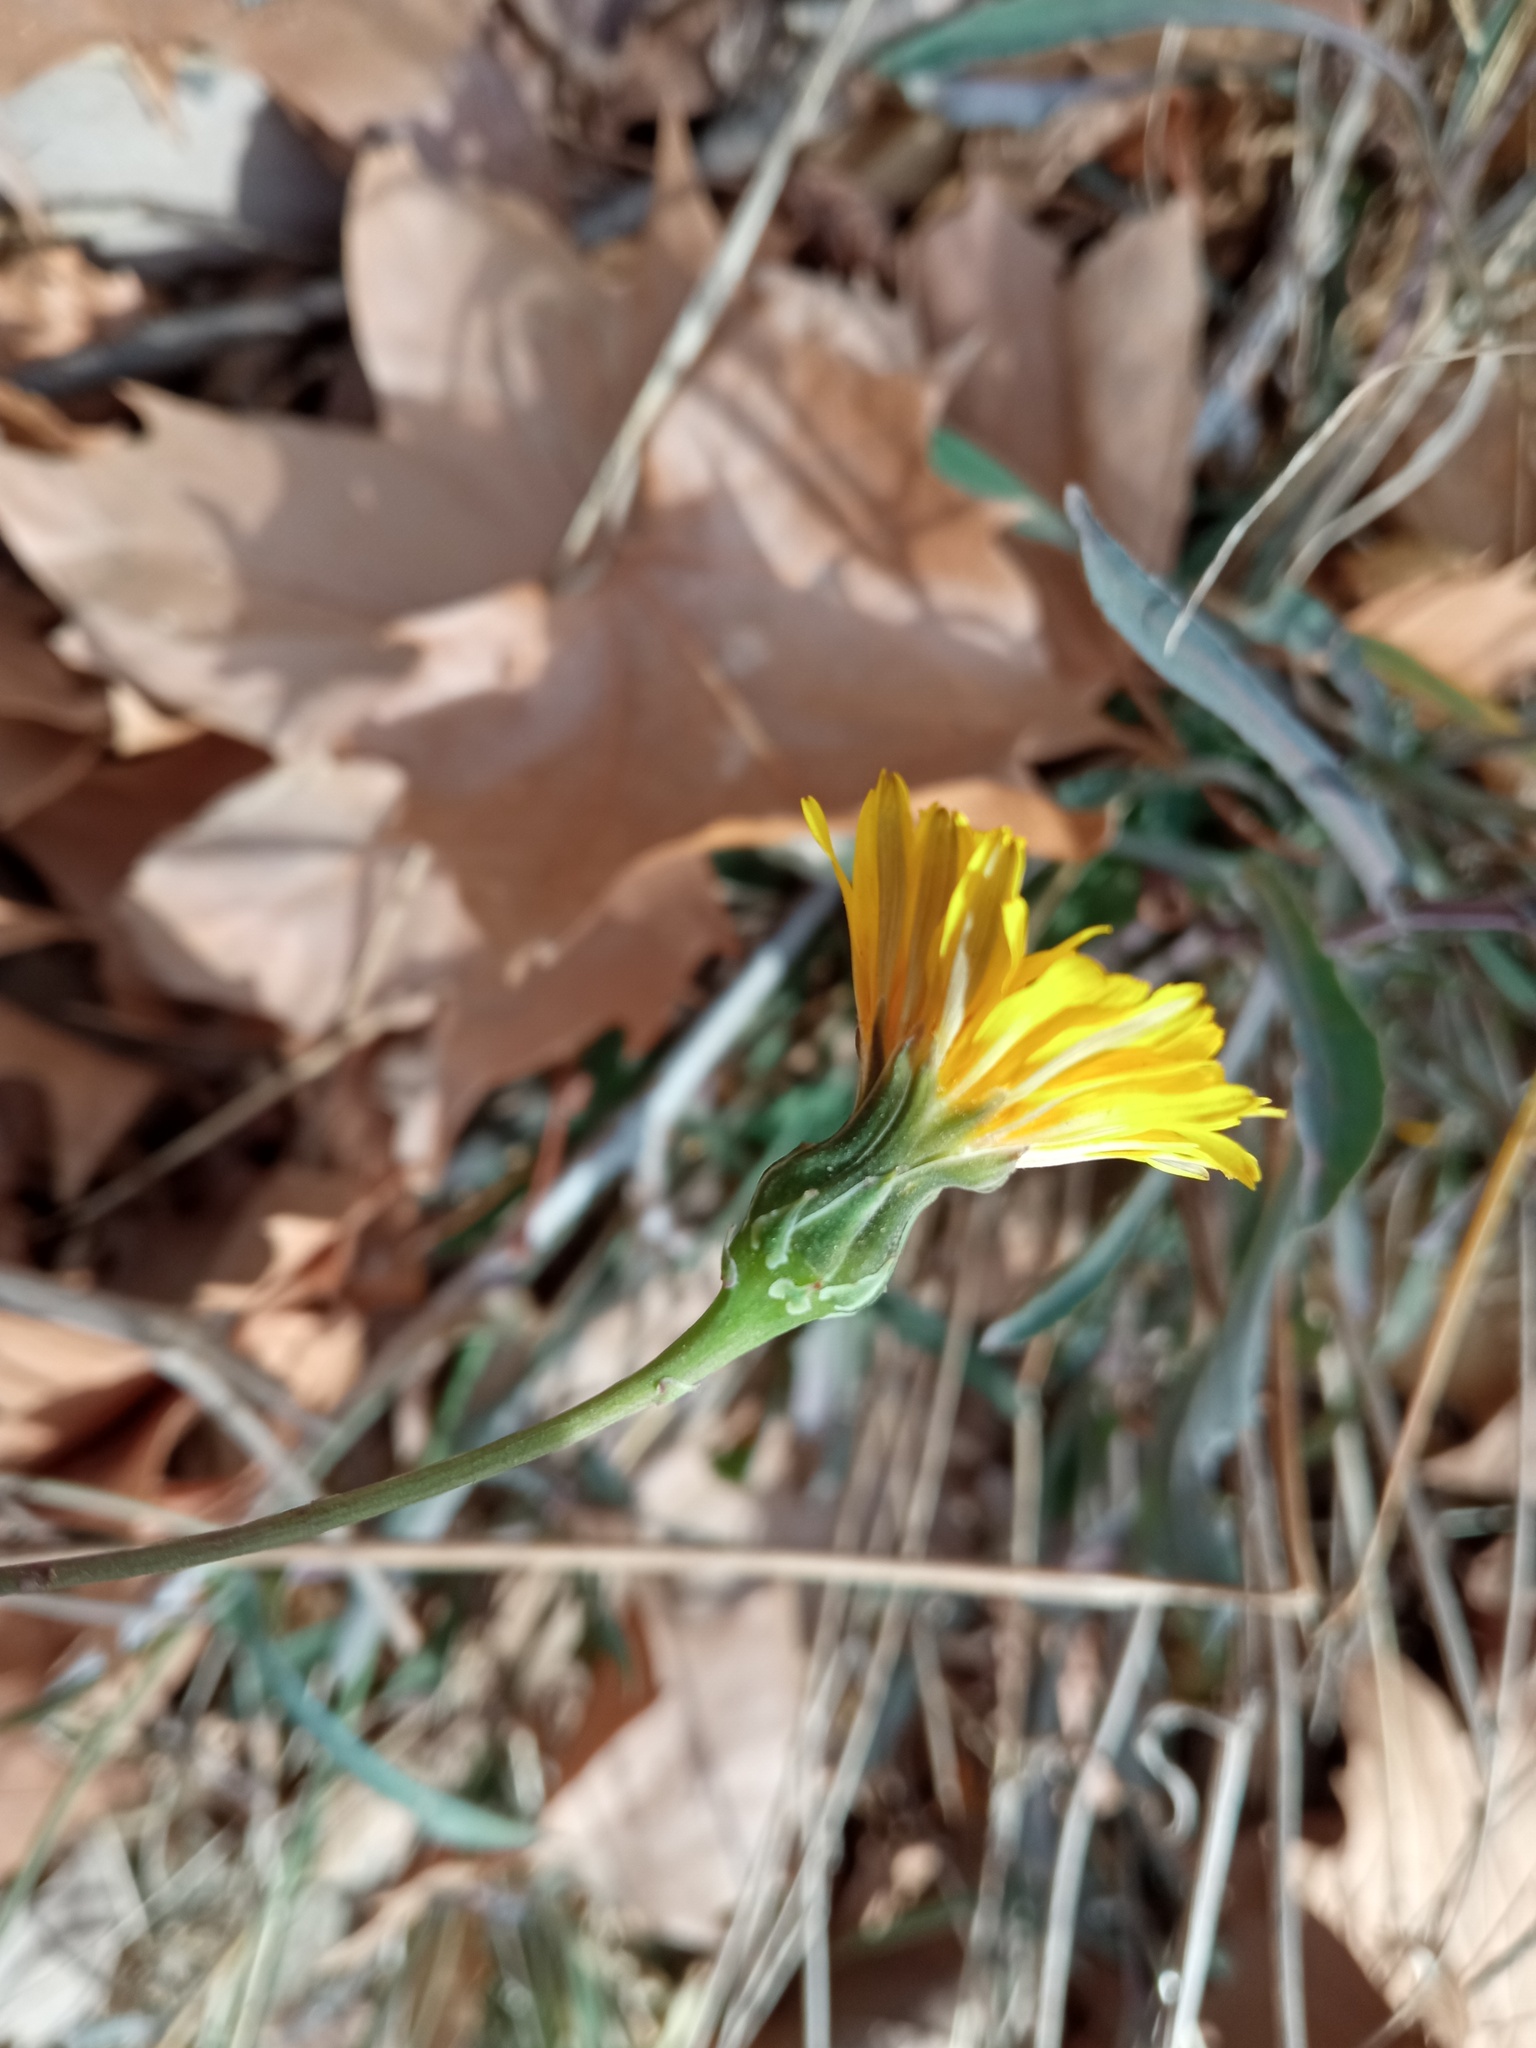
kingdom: Plantae
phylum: Tracheophyta
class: Magnoliopsida
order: Asterales
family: Asteraceae
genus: Reichardia
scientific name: Reichardia picroides
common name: Common brighteyes
